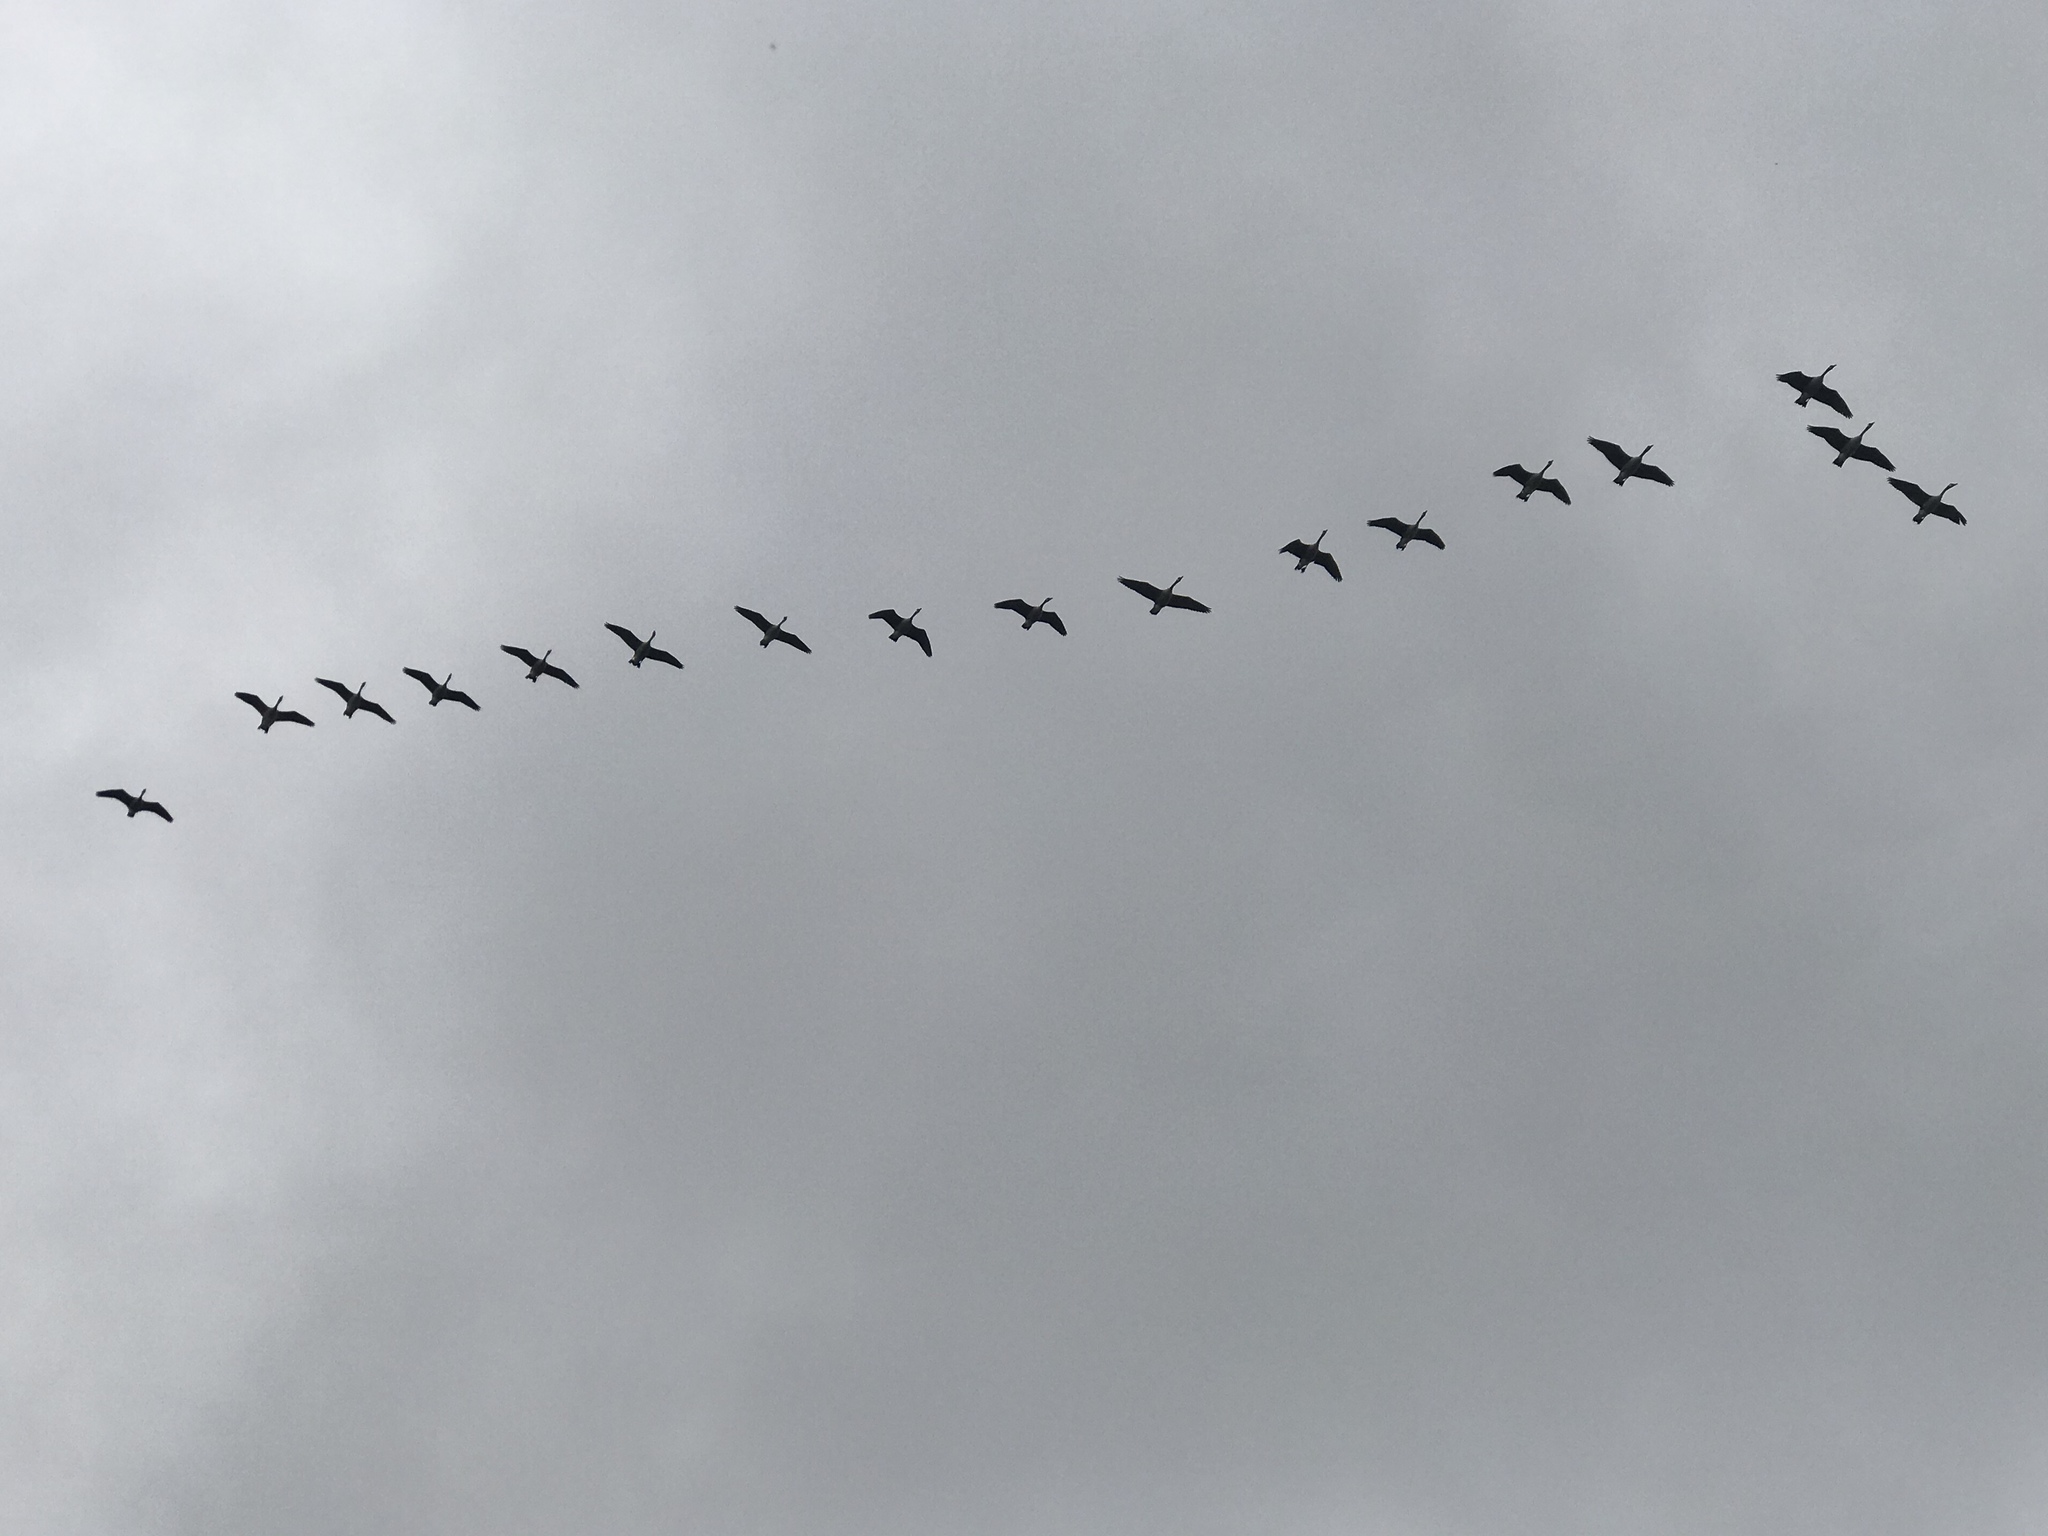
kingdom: Animalia
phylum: Chordata
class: Aves
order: Anseriformes
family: Anatidae
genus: Branta
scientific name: Branta canadensis
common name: Canada goose
